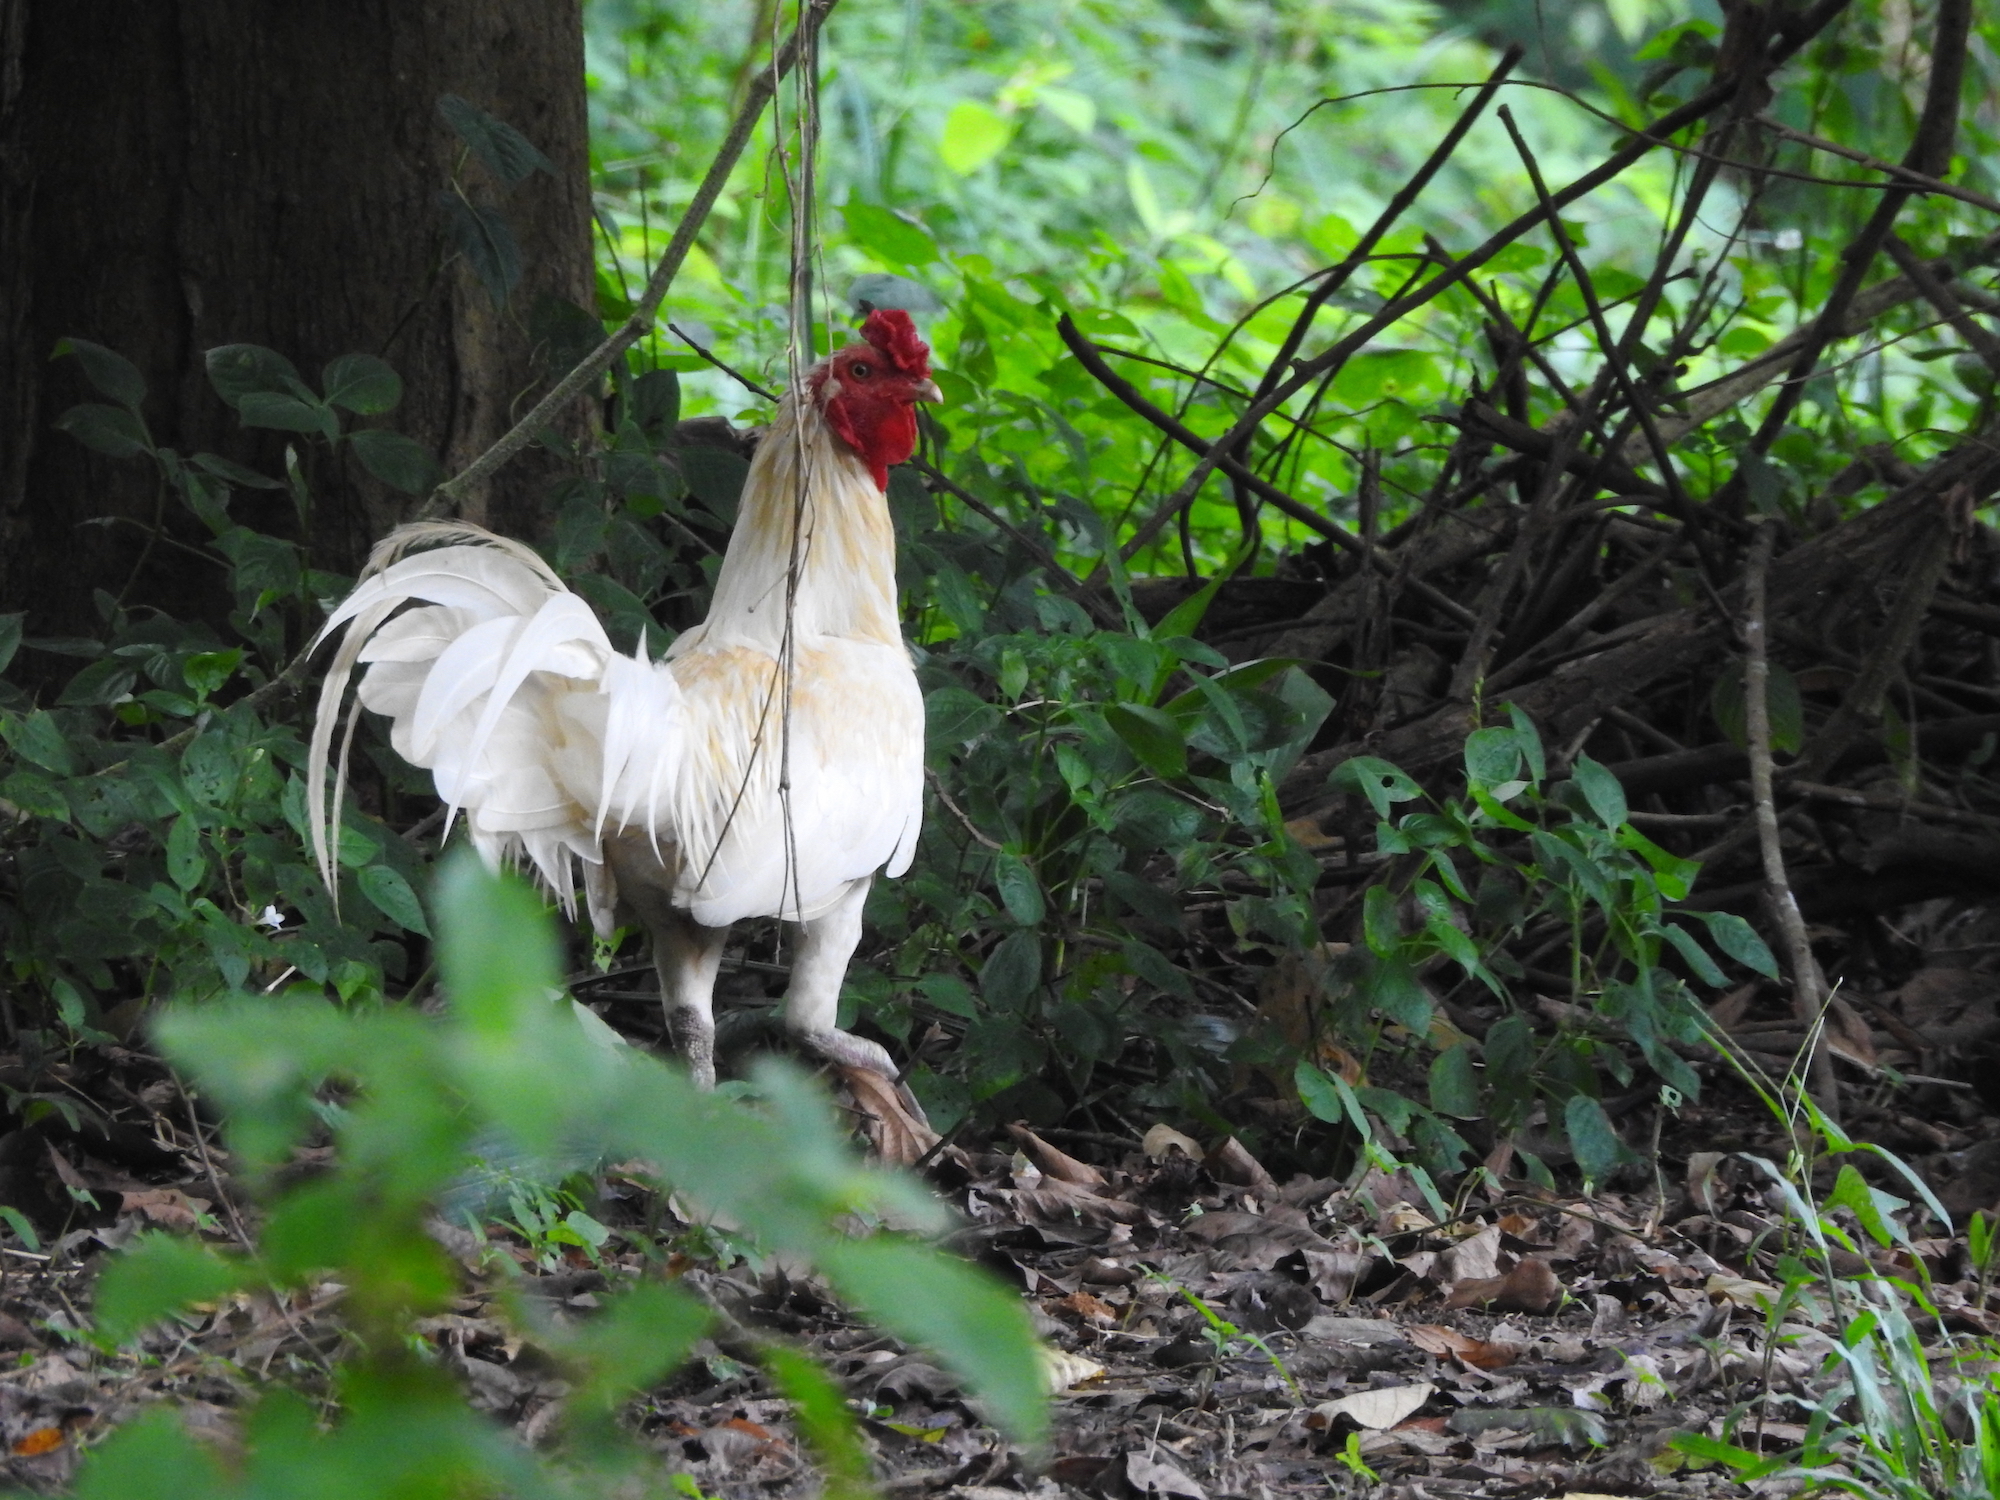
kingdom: Animalia
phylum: Chordata
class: Aves
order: Galliformes
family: Phasianidae
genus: Gallus
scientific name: Gallus gallus
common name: Red junglefowl
